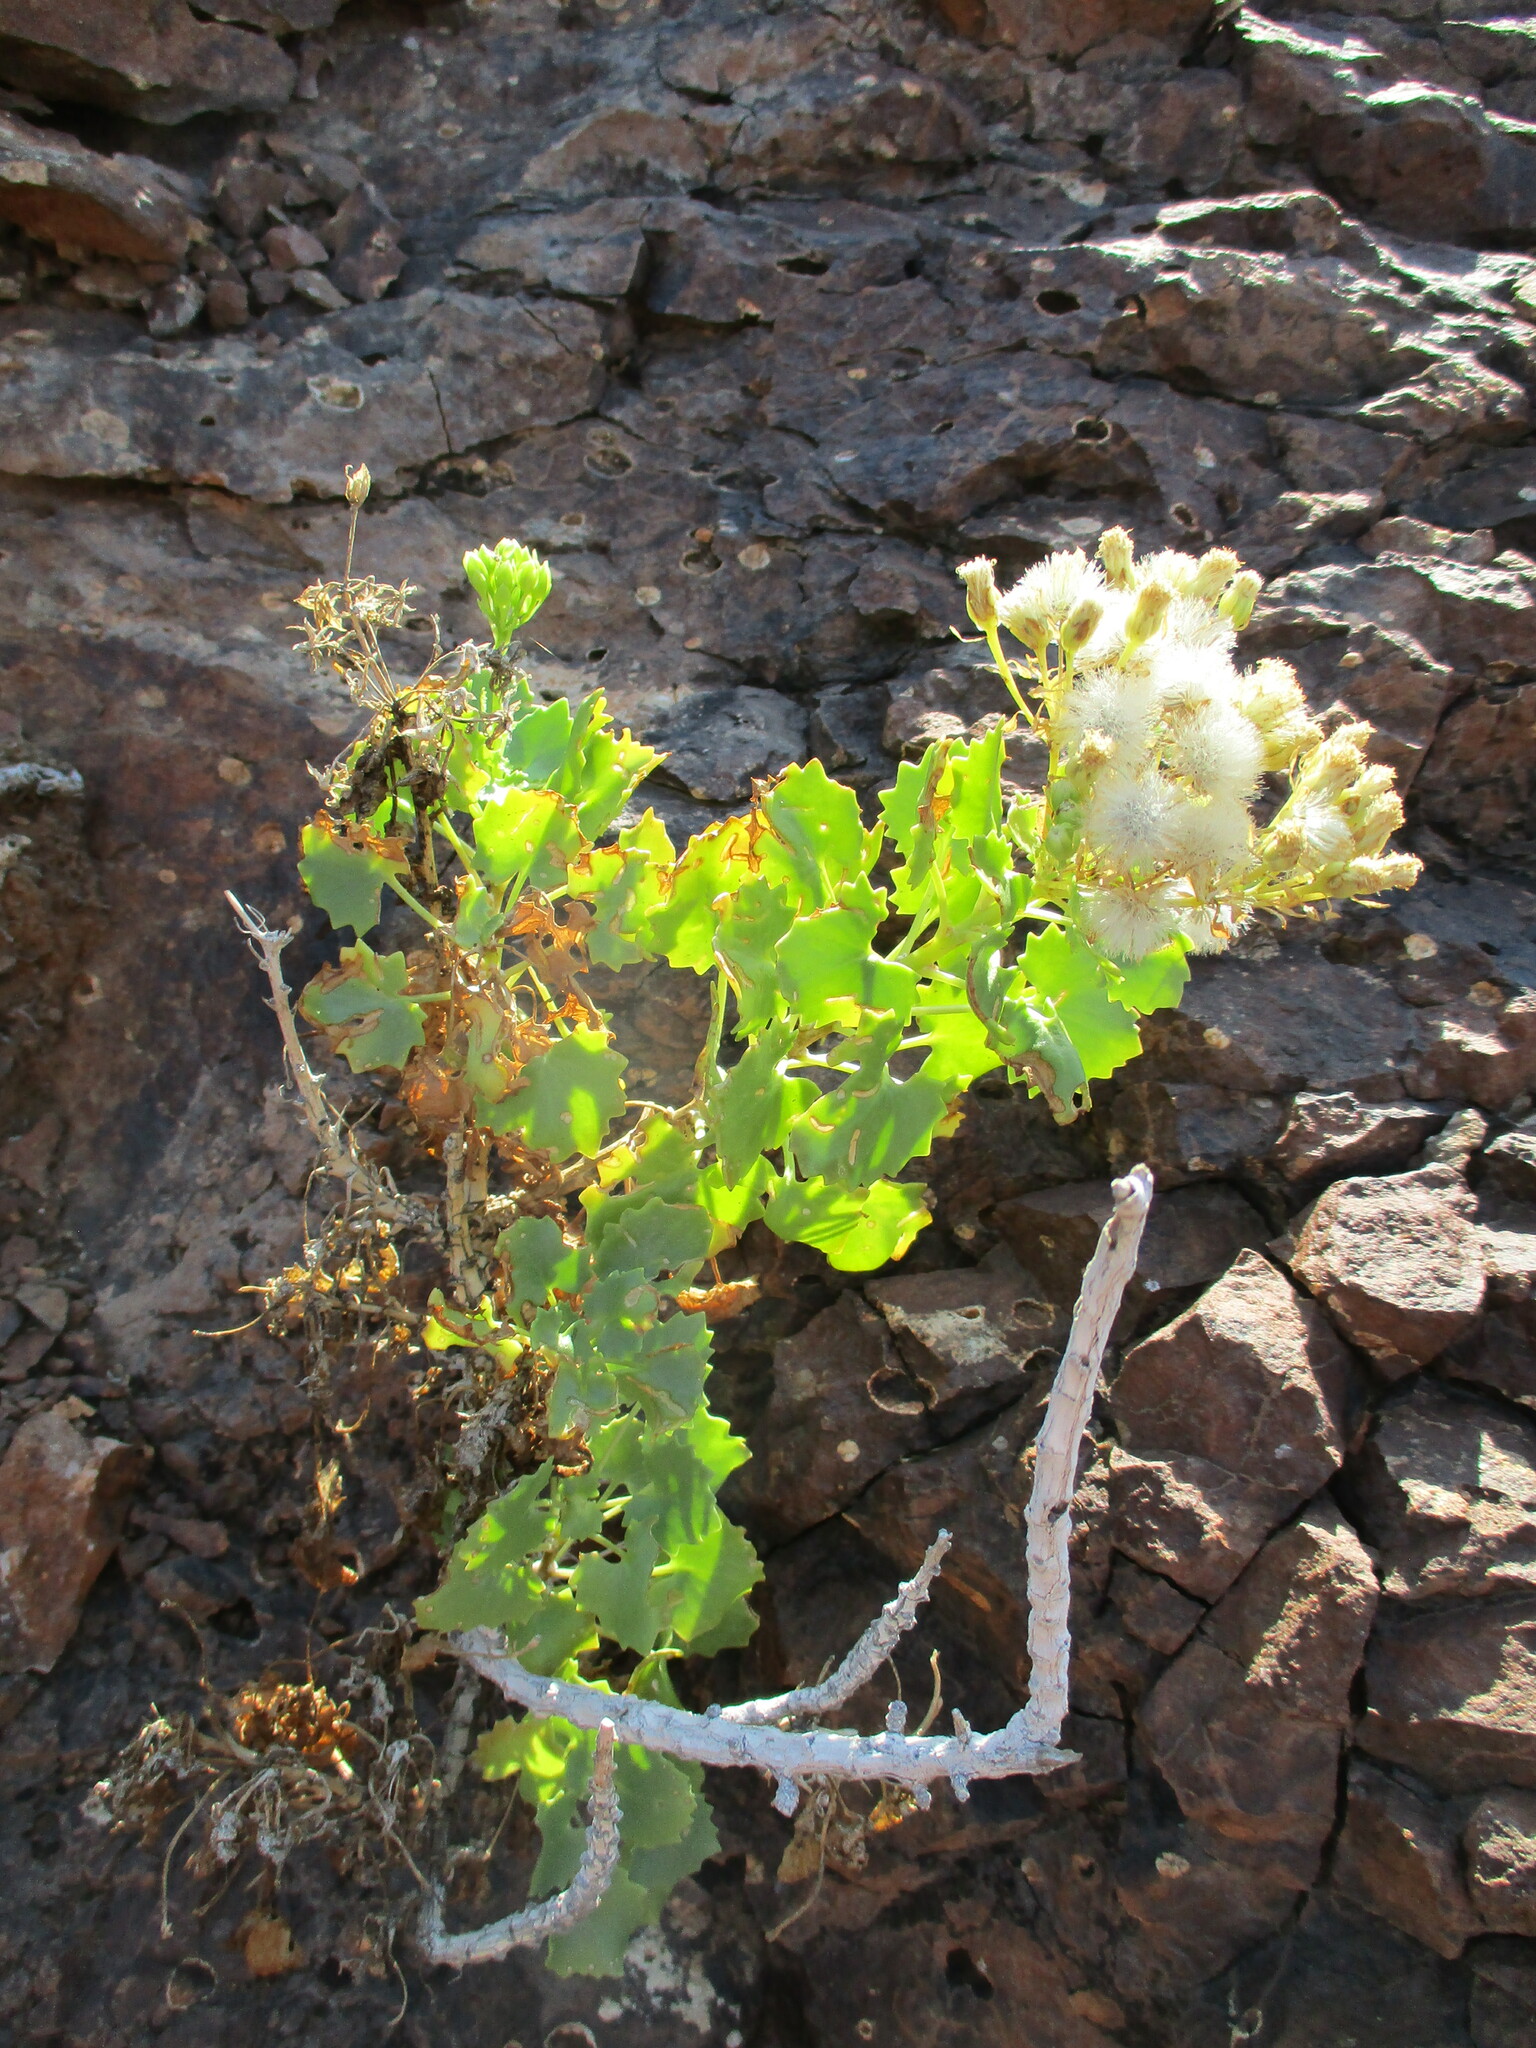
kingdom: Plantae
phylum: Tracheophyta
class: Magnoliopsida
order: Asterales
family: Asteraceae
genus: Dauresia
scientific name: Dauresia alliariifolia
